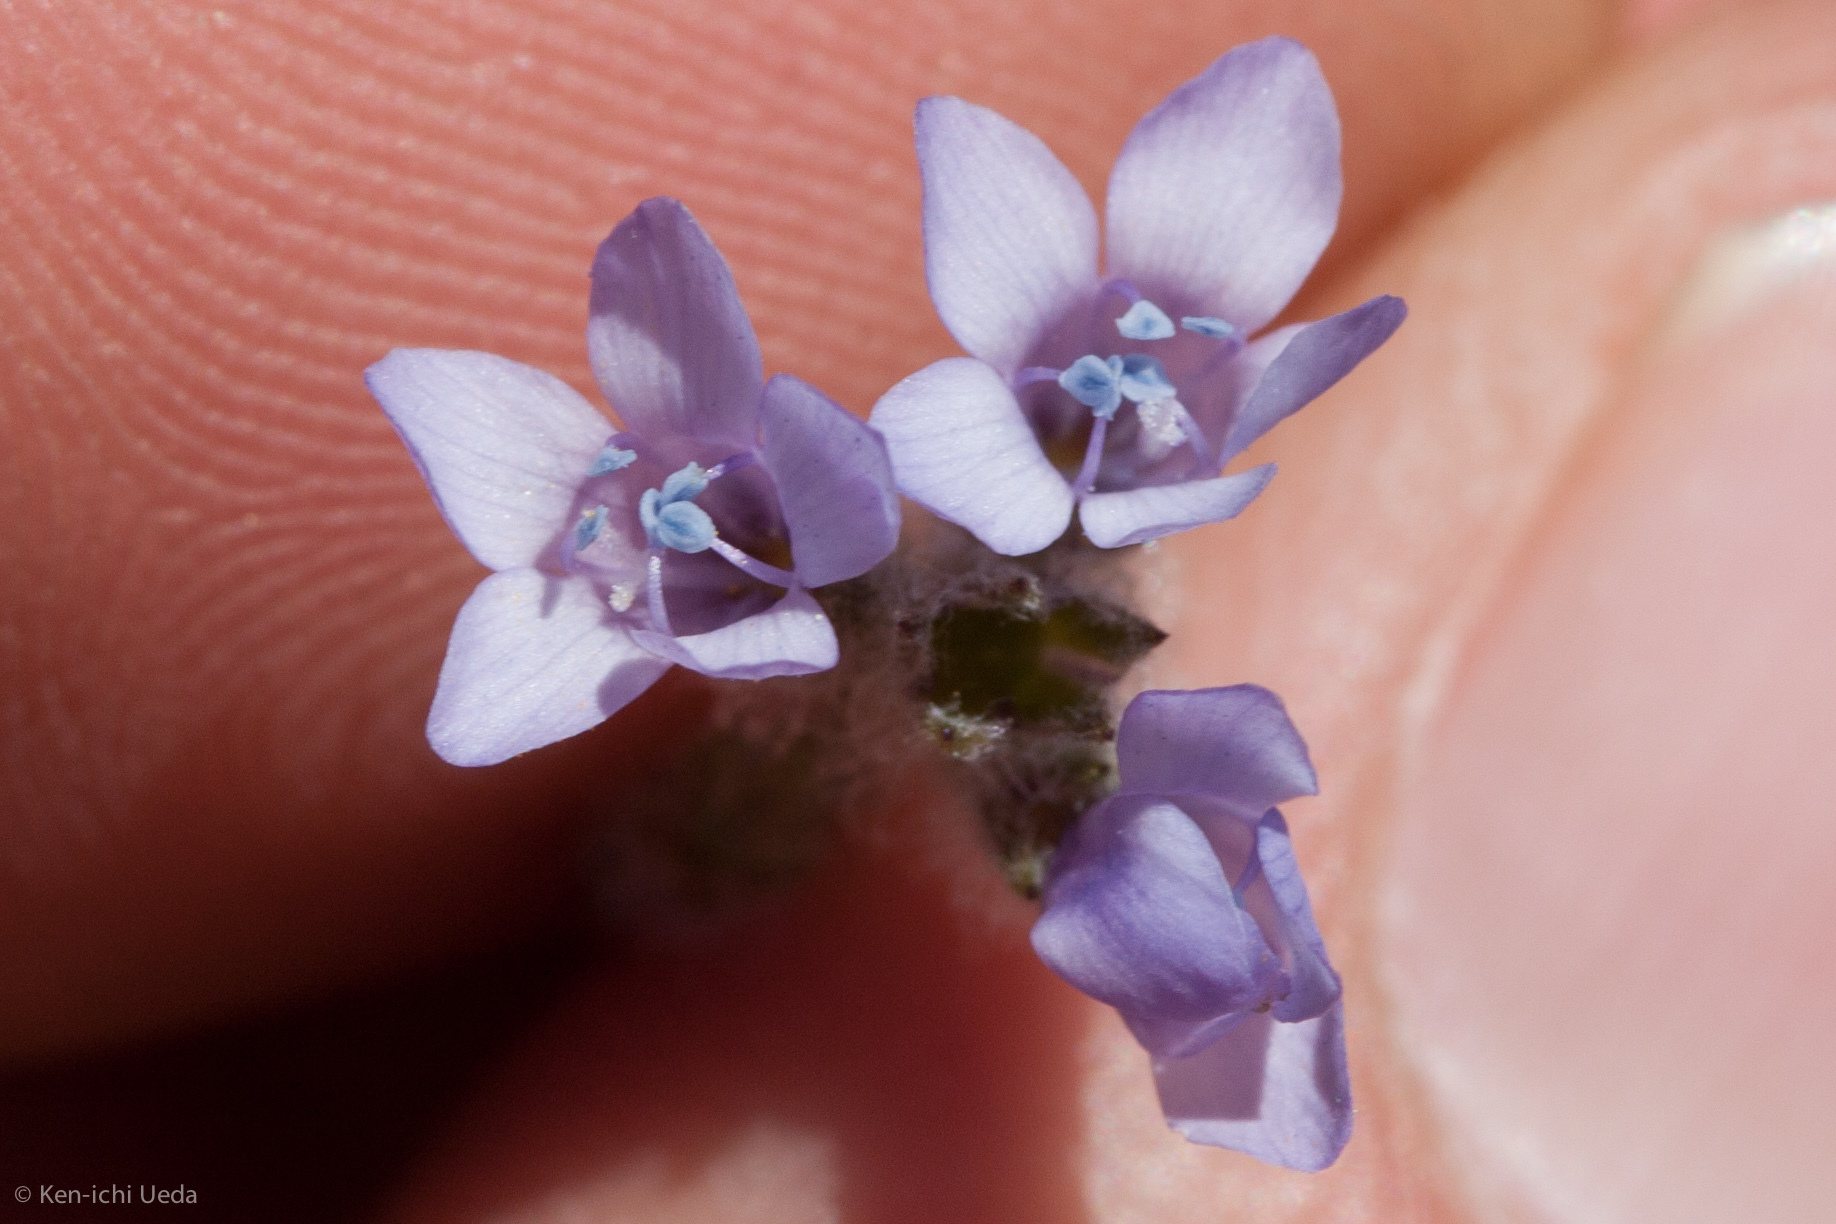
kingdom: Plantae
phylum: Tracheophyta
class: Magnoliopsida
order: Ericales
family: Polemoniaceae
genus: Gilia
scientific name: Gilia achilleifolia
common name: California gily-flower
